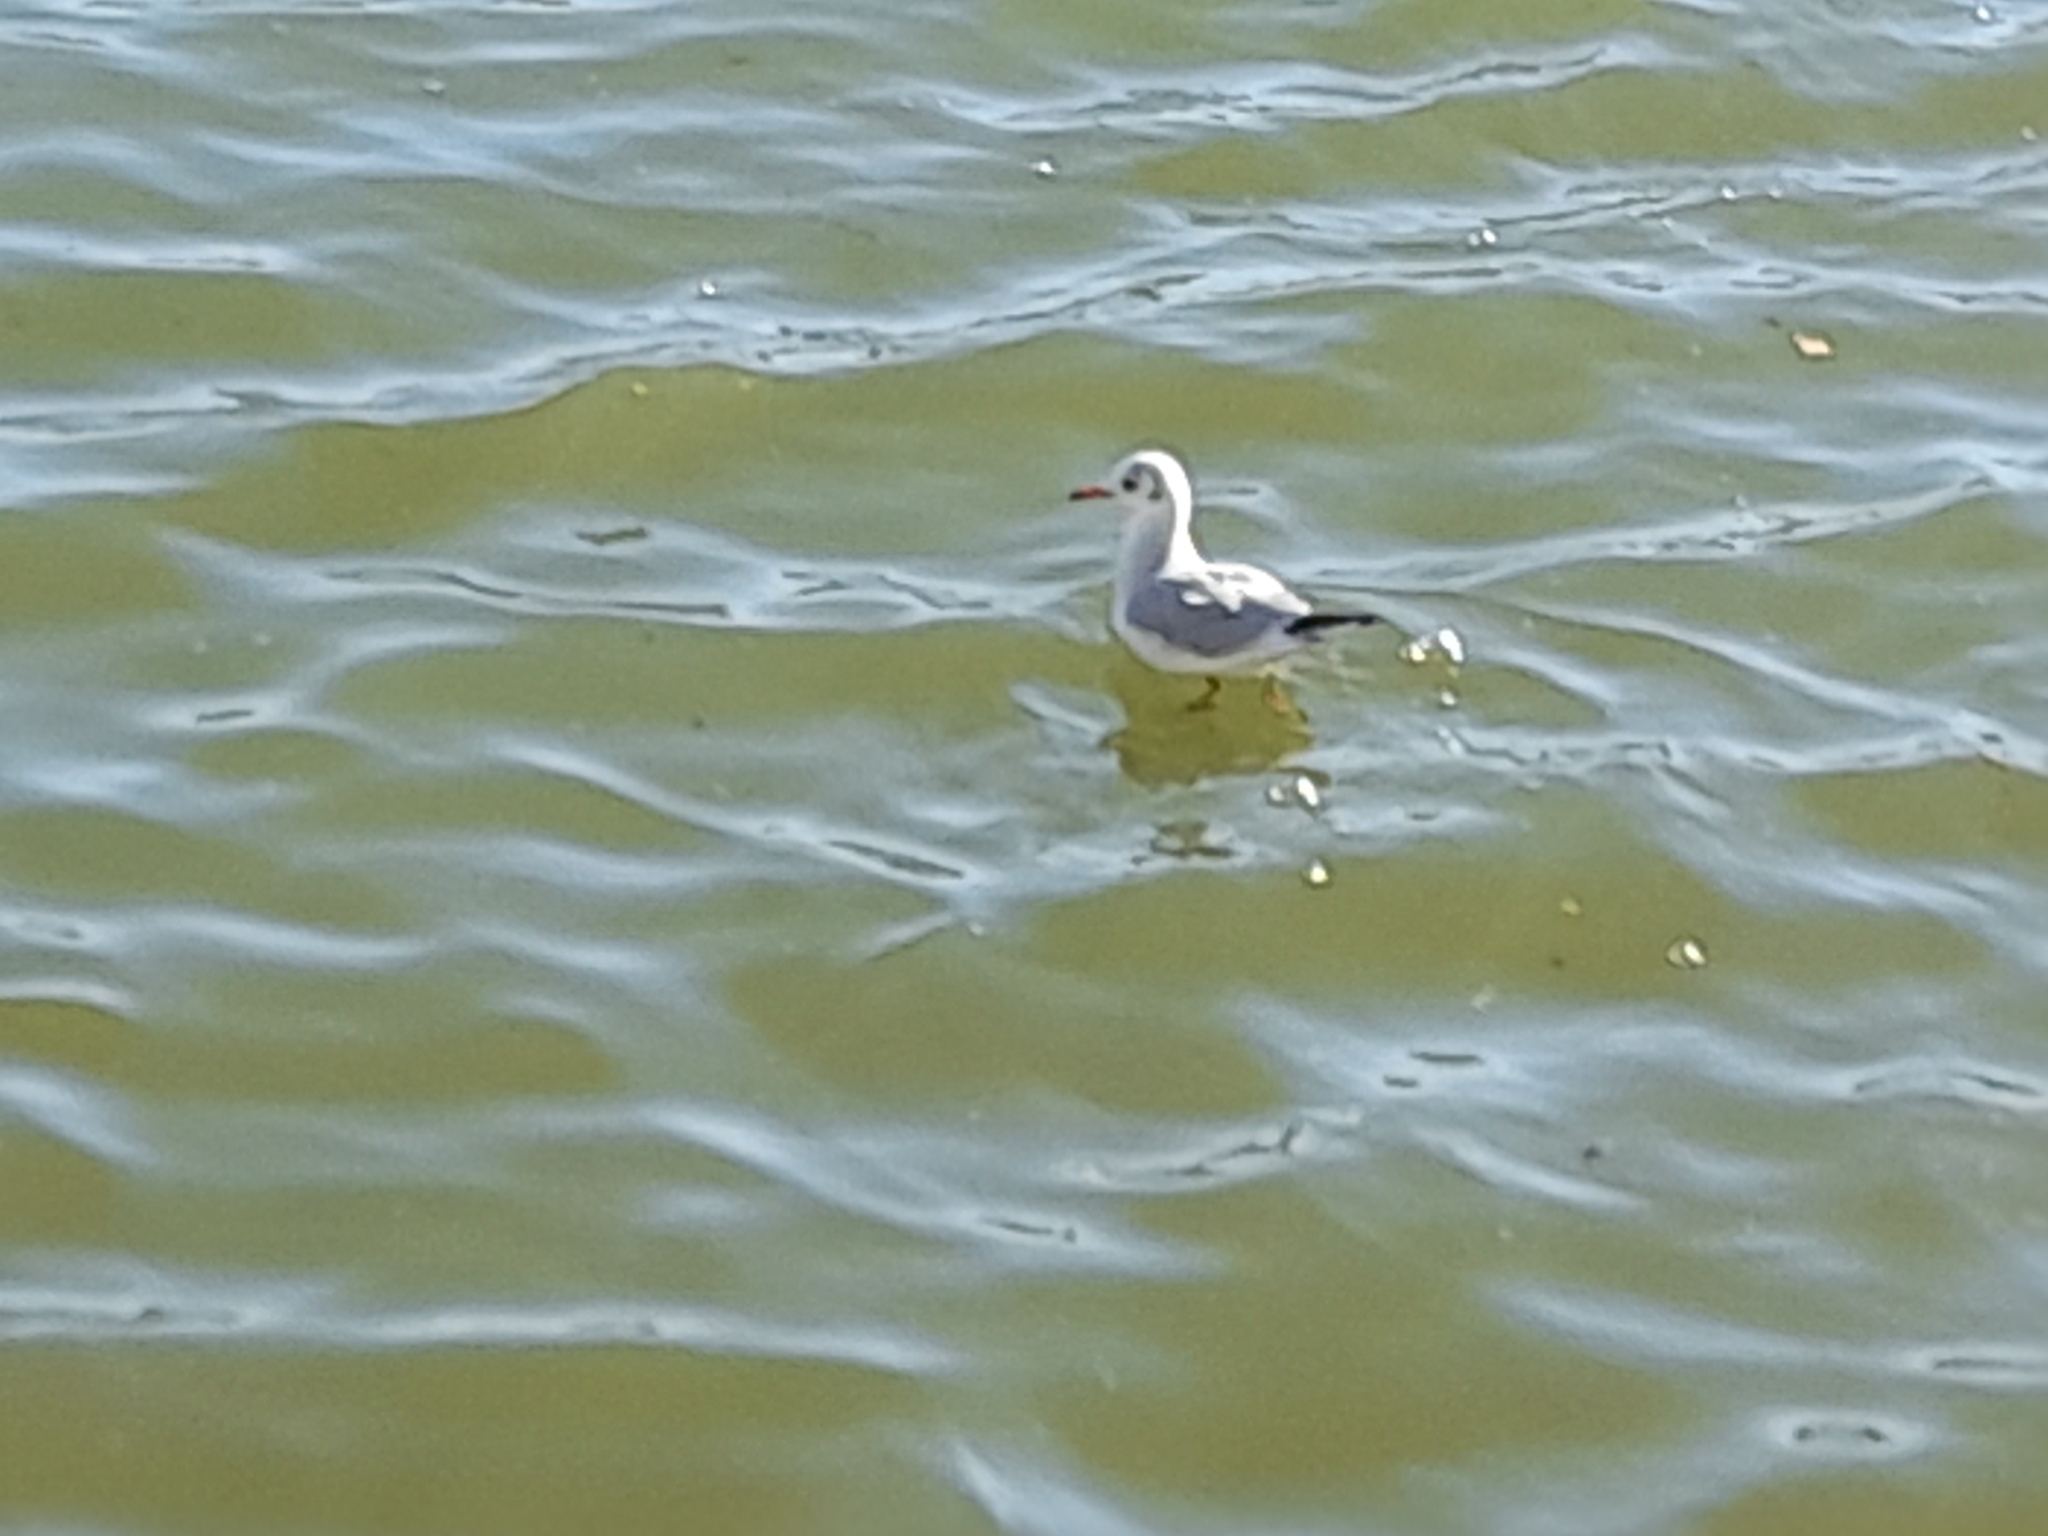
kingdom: Animalia
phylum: Chordata
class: Aves
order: Charadriiformes
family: Laridae
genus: Chroicocephalus
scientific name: Chroicocephalus ridibundus
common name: Black-headed gull
